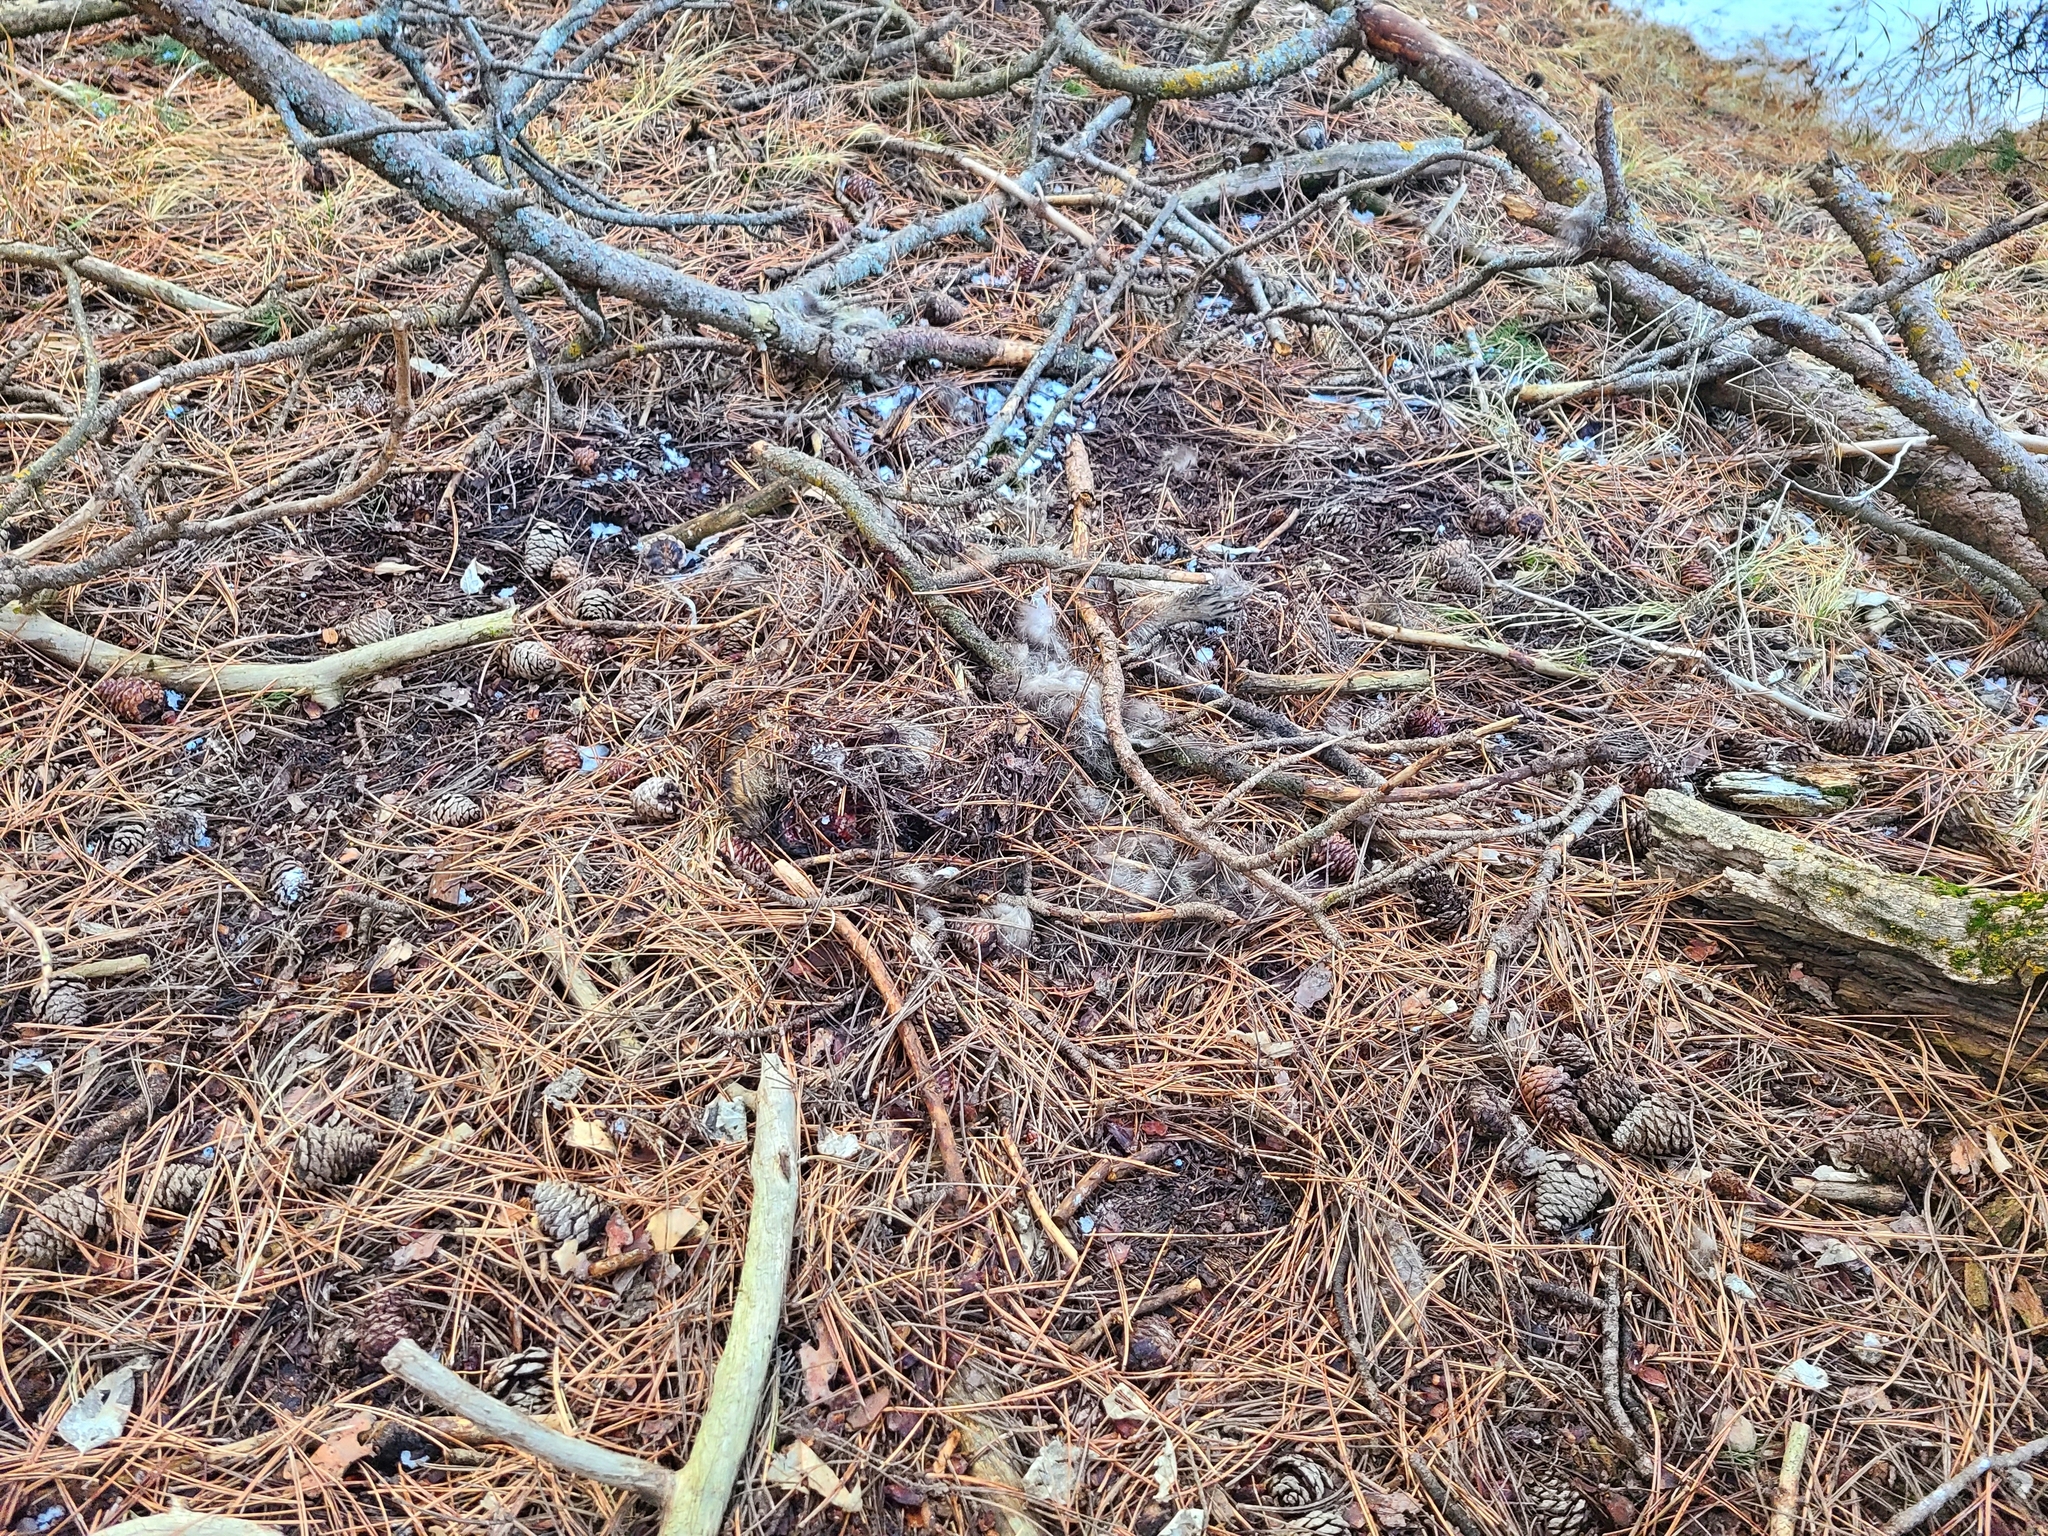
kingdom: Animalia
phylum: Chordata
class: Mammalia
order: Carnivora
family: Felidae
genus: Puma
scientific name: Puma concolor
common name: Puma
